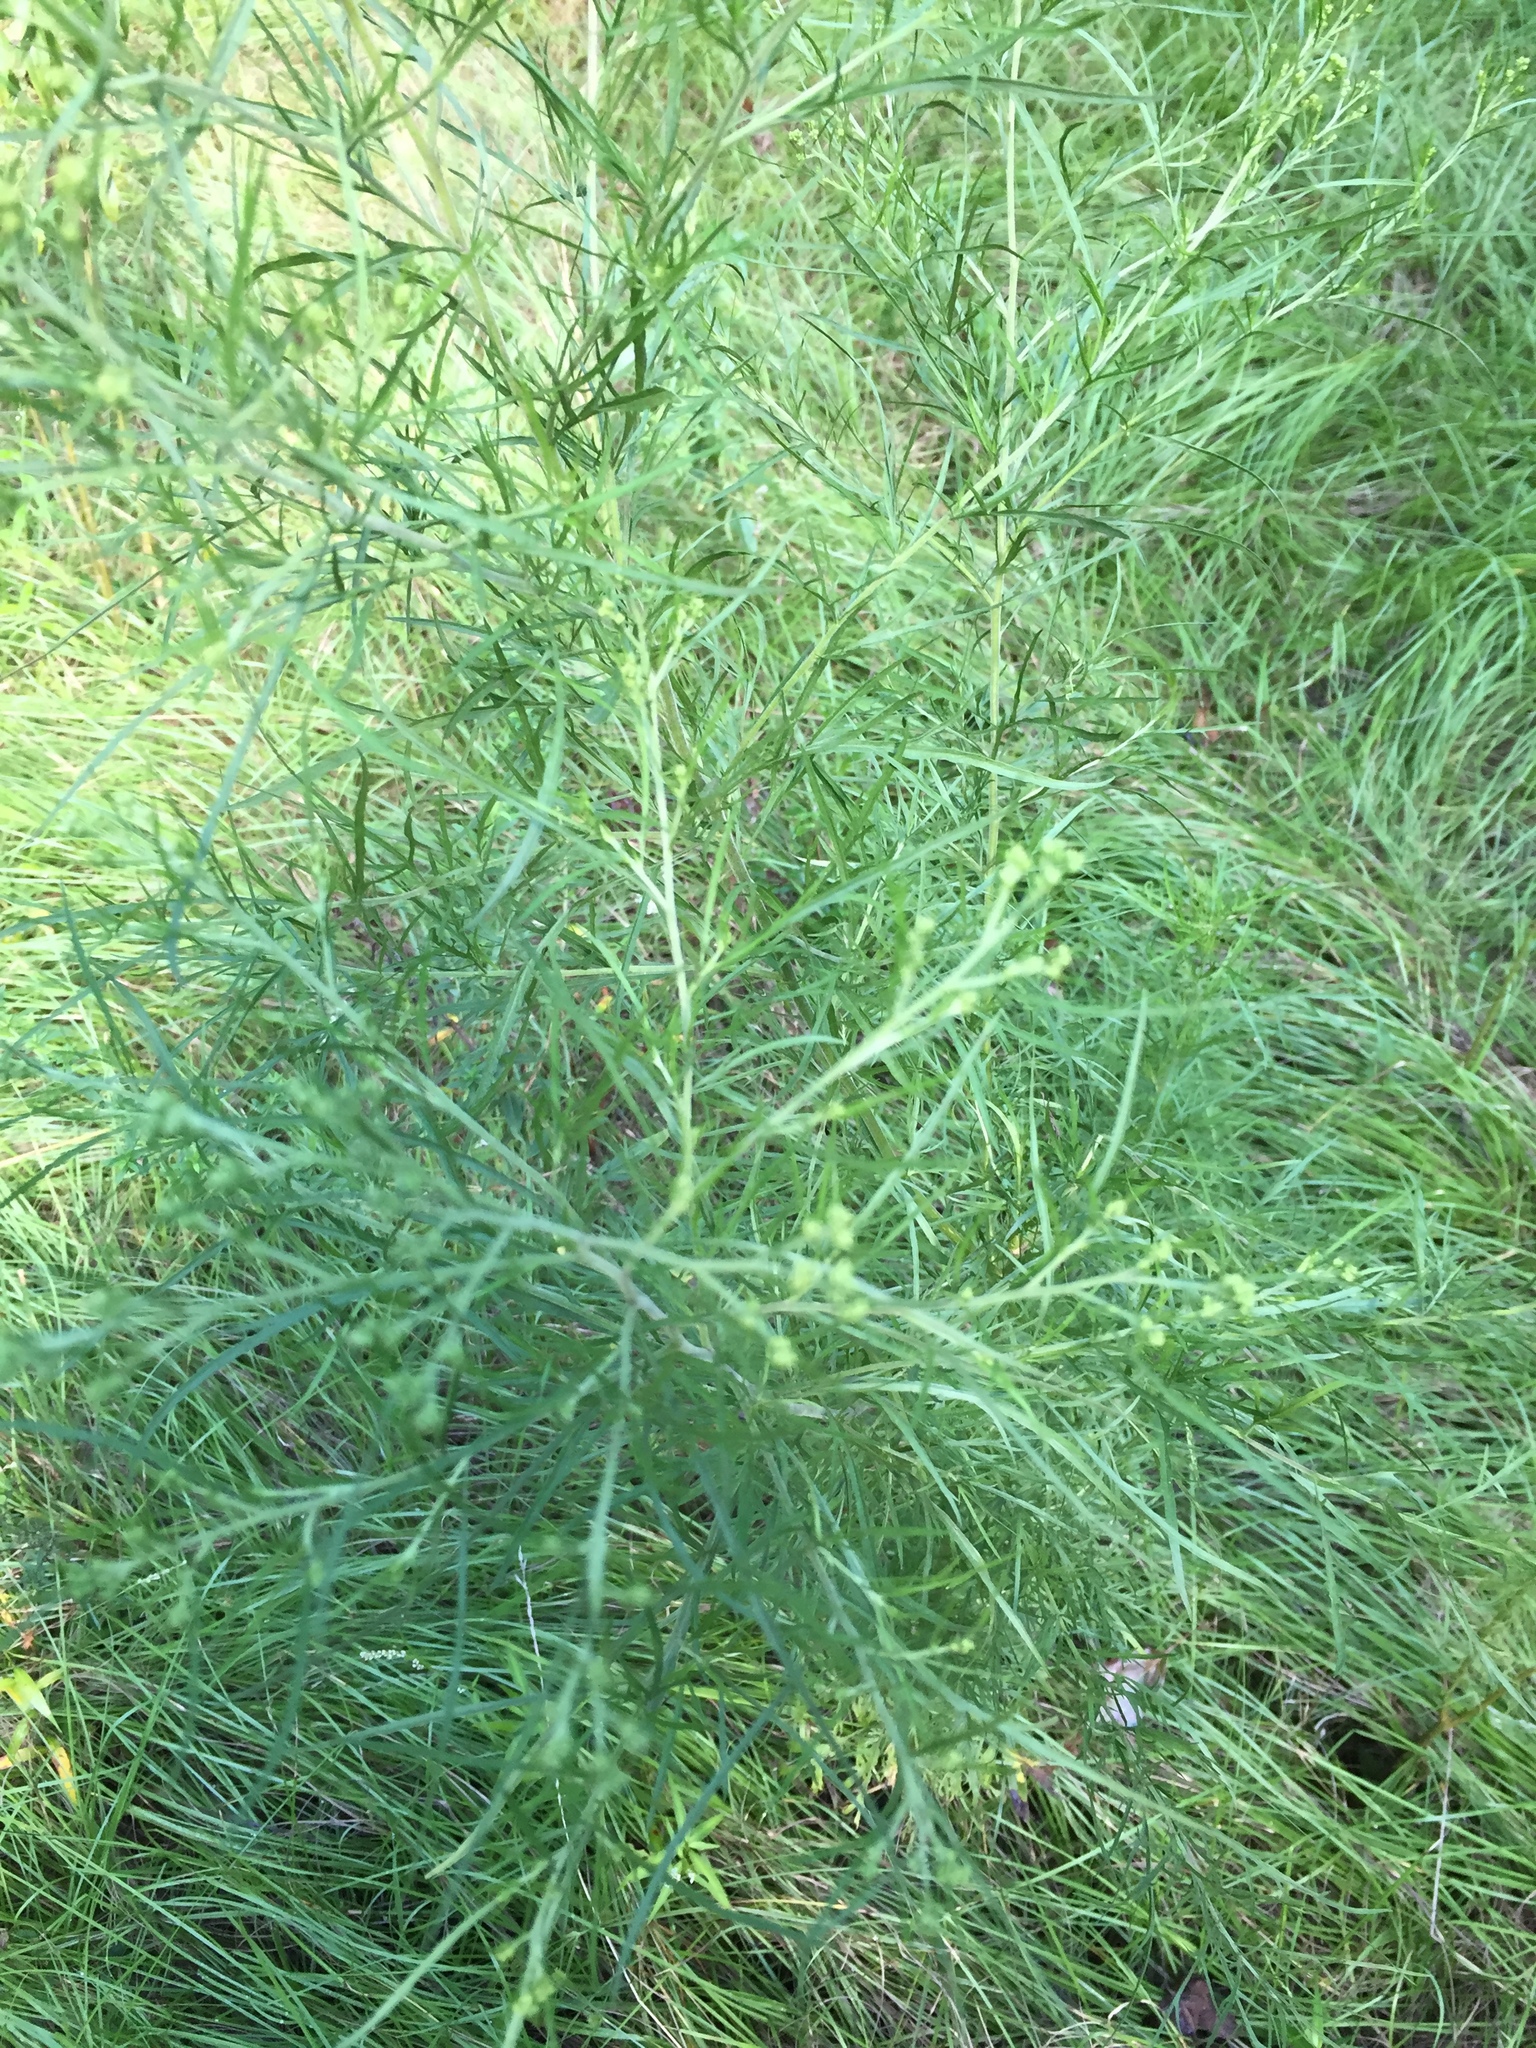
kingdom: Plantae
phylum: Tracheophyta
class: Magnoliopsida
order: Asterales
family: Asteraceae
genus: Eupatorium
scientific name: Eupatorium pinnatifidum
